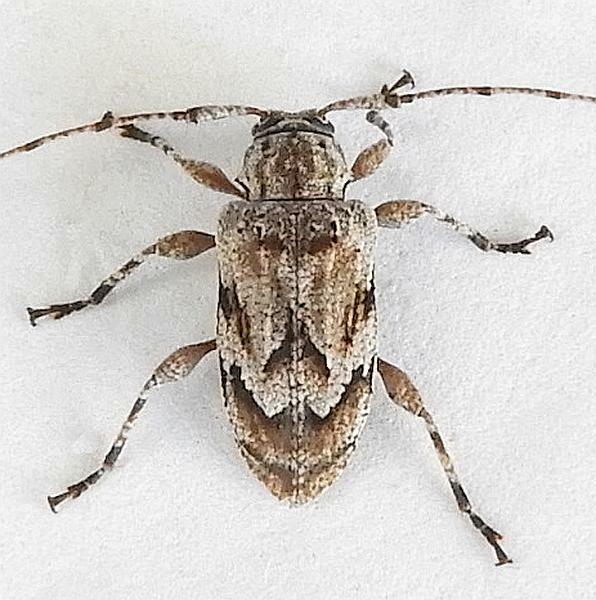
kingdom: Animalia
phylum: Arthropoda
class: Insecta
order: Coleoptera
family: Cerambycidae
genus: Astylopsis
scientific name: Astylopsis arcuata
